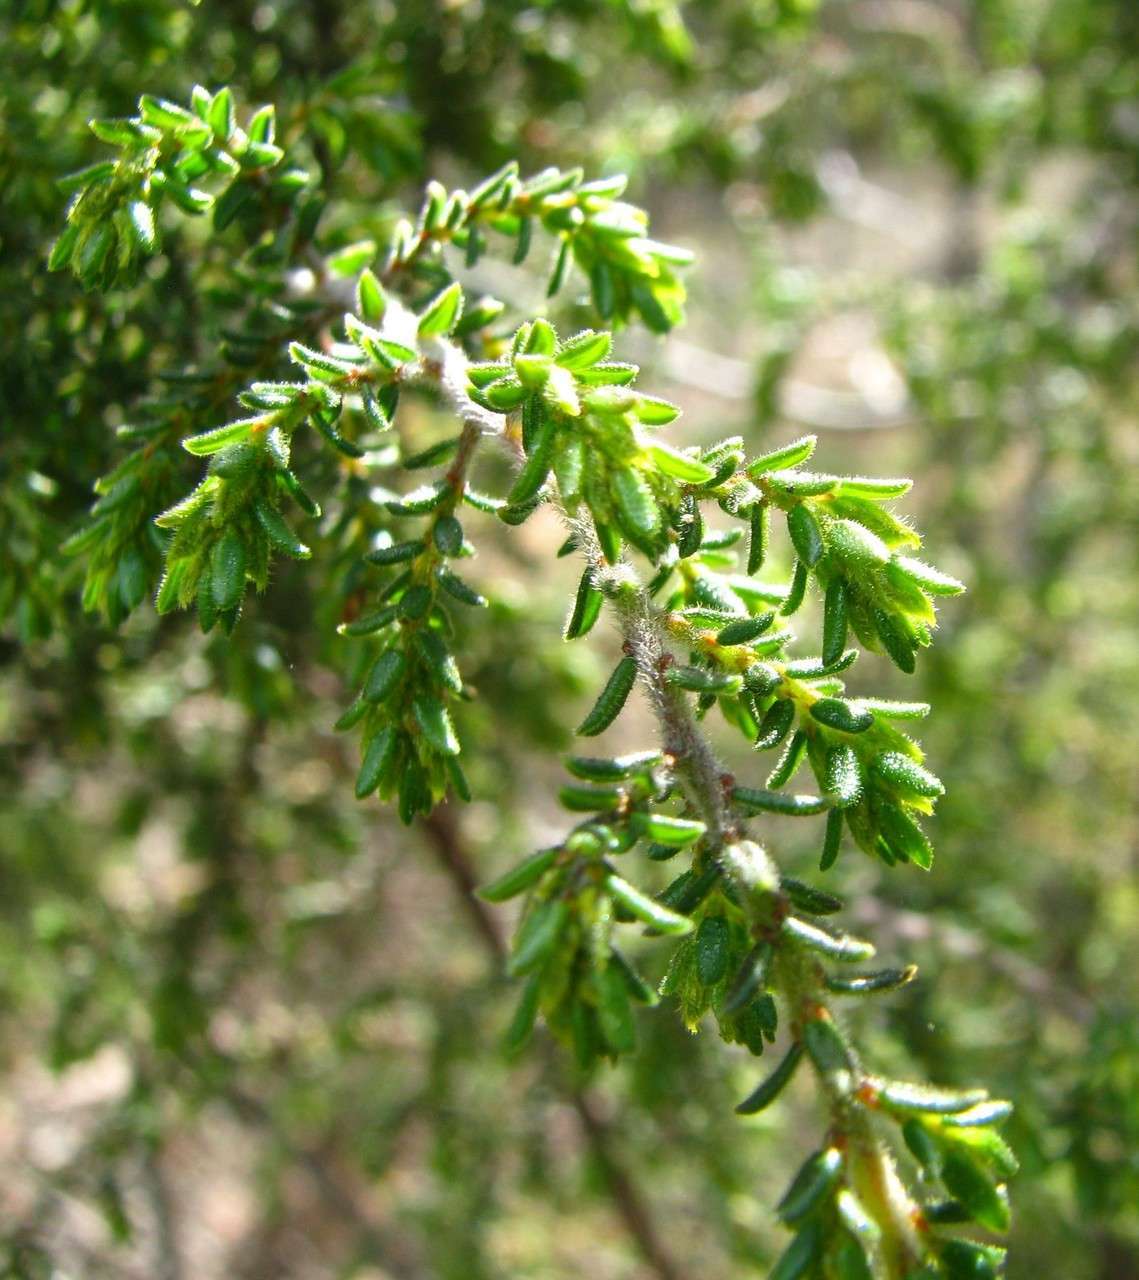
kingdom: Plantae
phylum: Tracheophyta
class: Magnoliopsida
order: Fabales
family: Fabaceae
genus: Pultenaea
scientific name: Pultenaea graveolens
